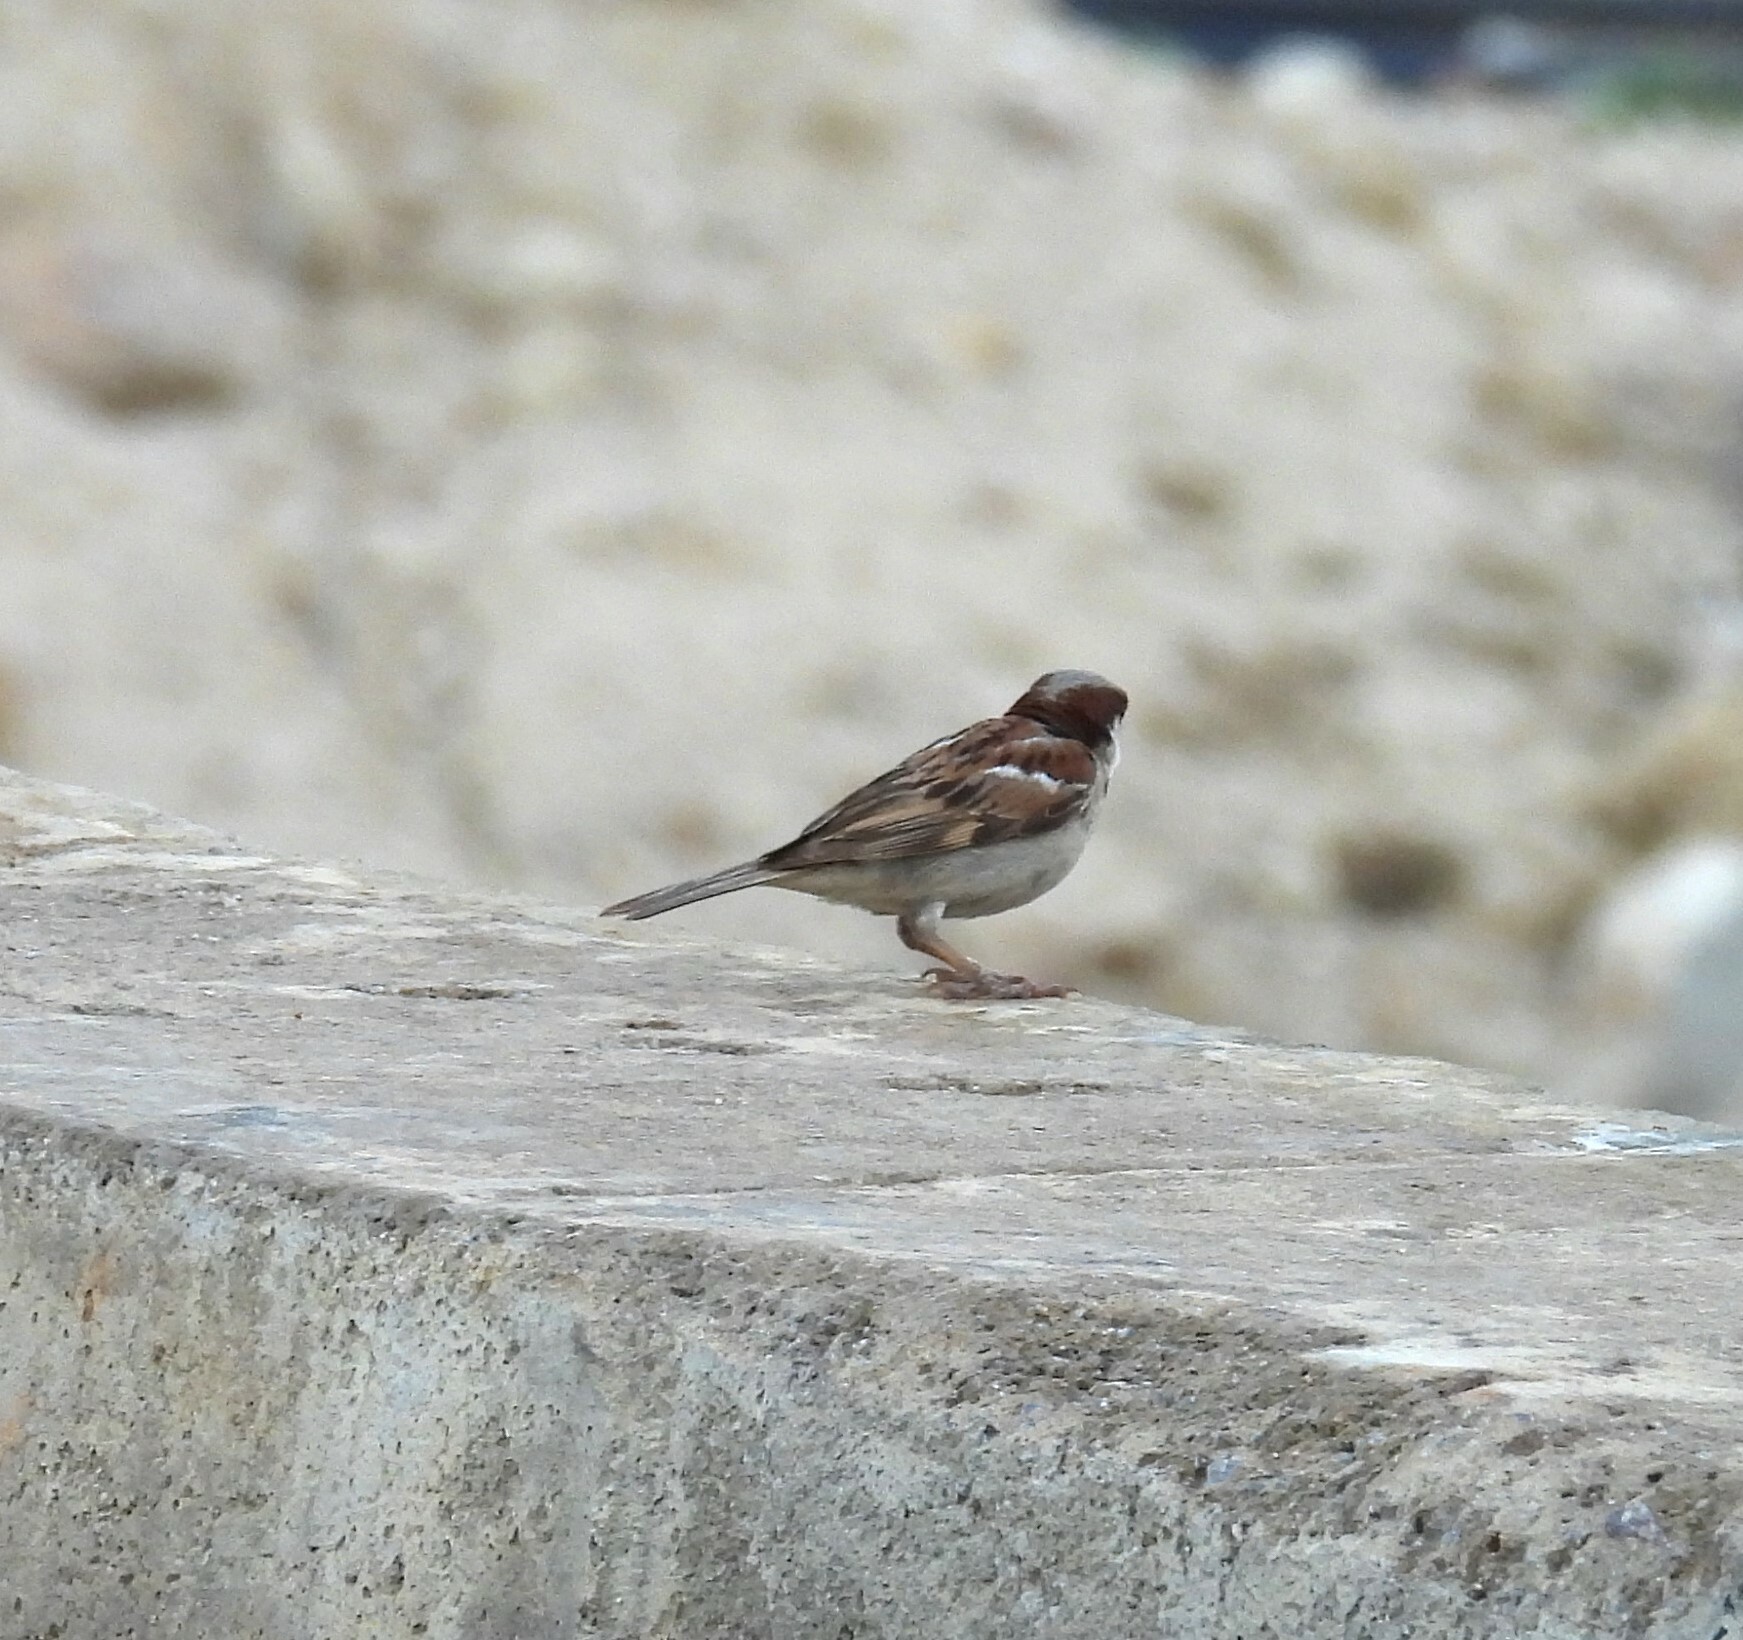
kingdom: Animalia
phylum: Chordata
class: Aves
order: Passeriformes
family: Passeridae
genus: Passer
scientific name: Passer domesticus
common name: House sparrow
